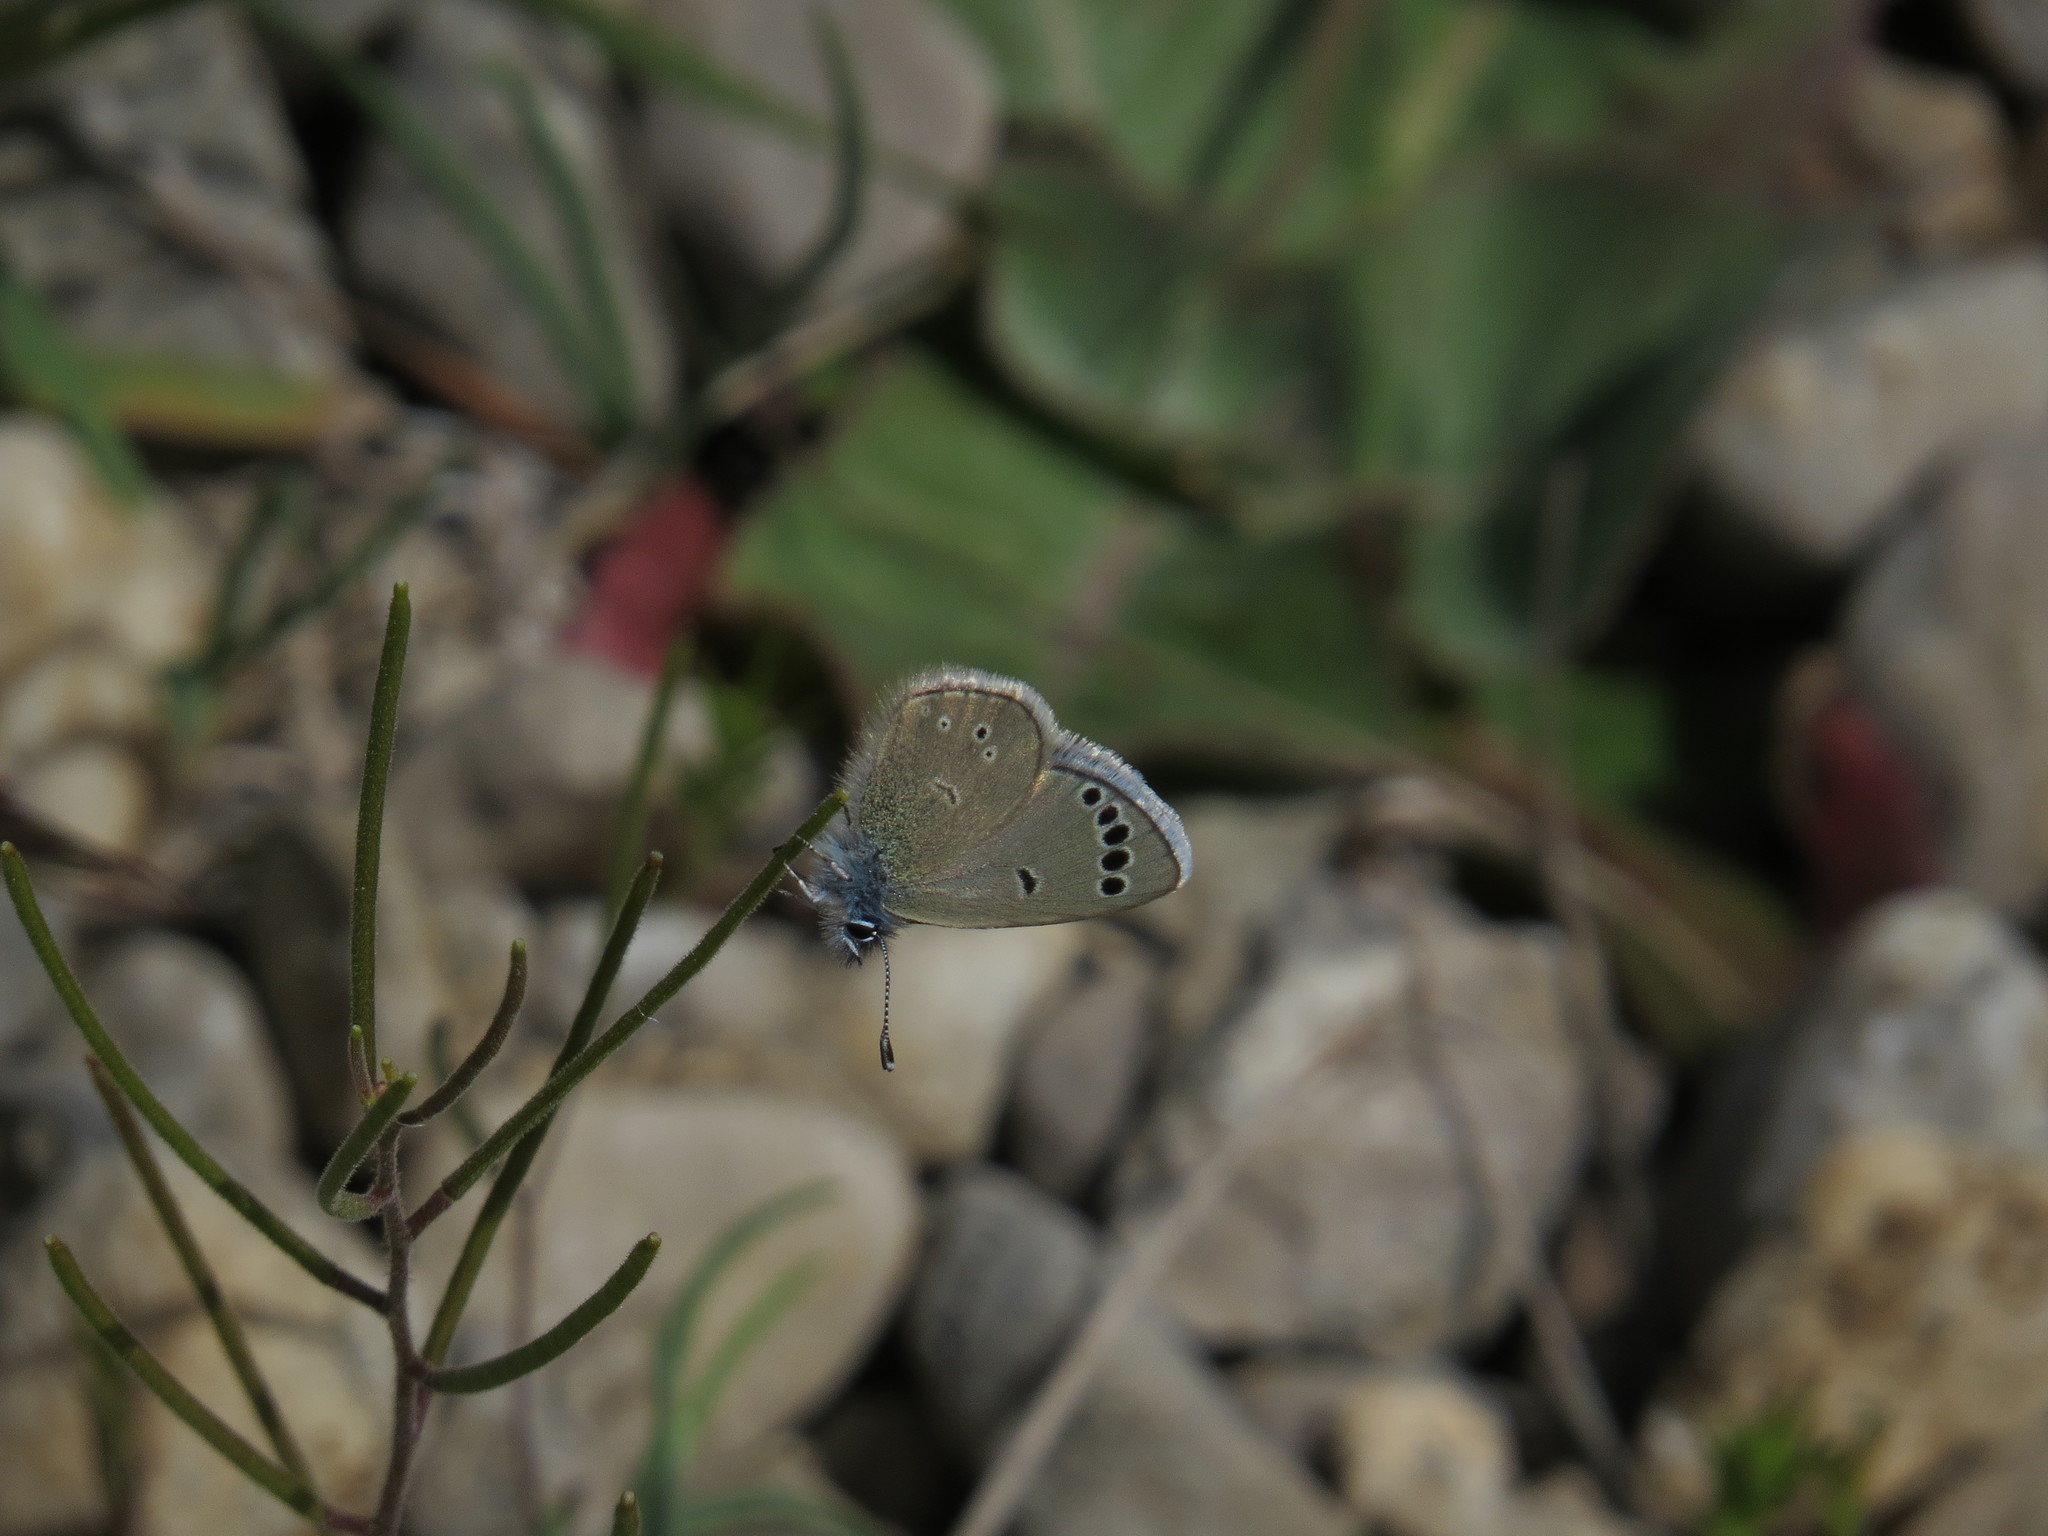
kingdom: Animalia
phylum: Arthropoda
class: Insecta
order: Lepidoptera
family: Lycaenidae
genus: Glaucopsyche
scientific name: Glaucopsyche astraea
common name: Anatolian black-eyed blue
